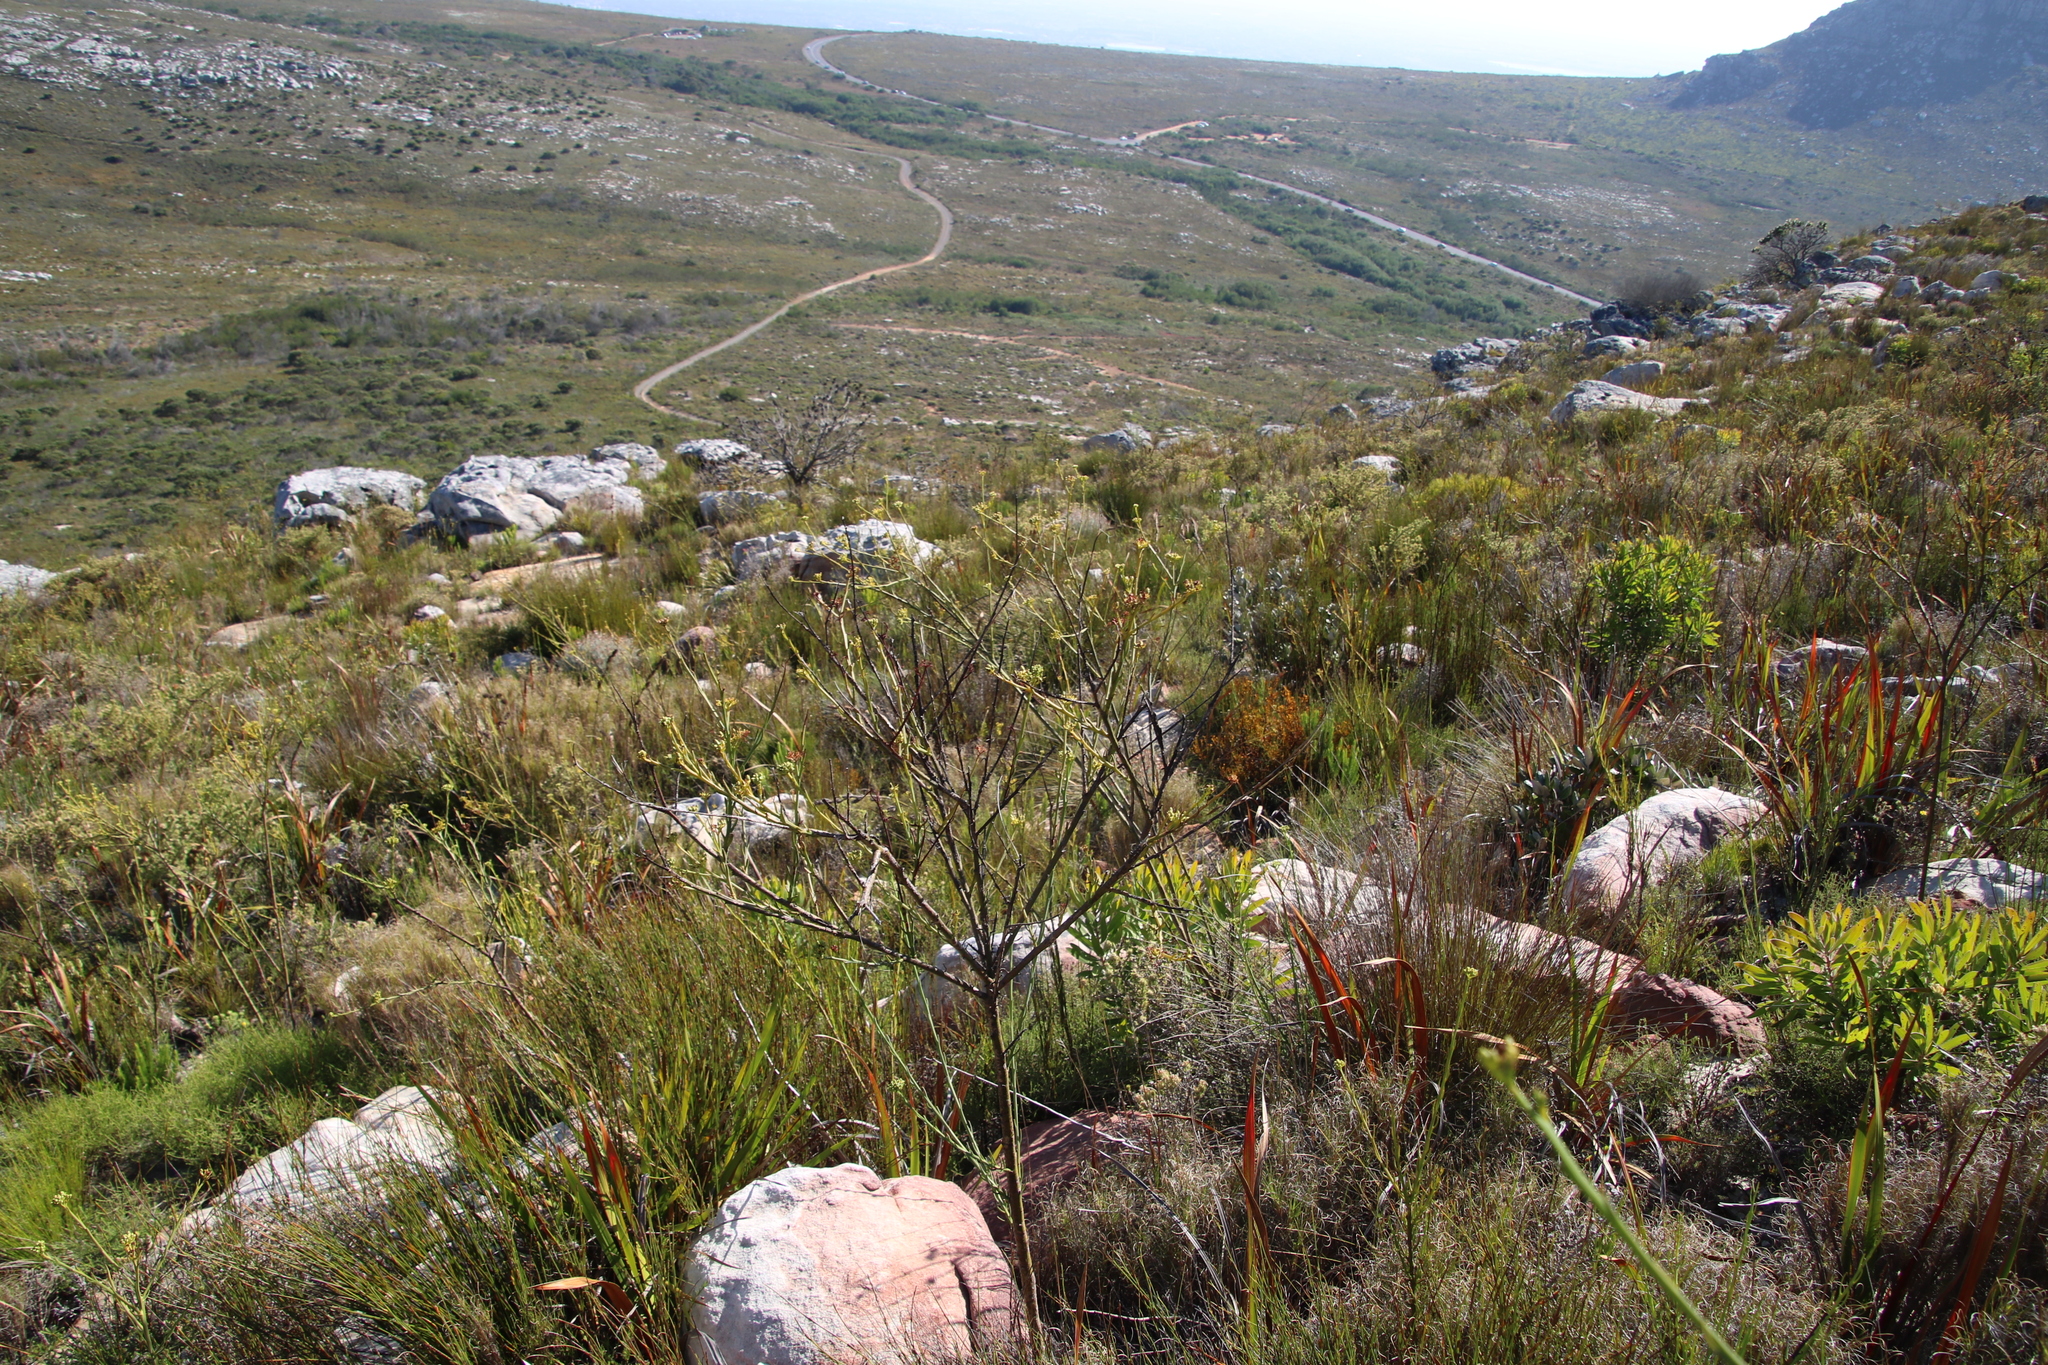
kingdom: Plantae
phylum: Tracheophyta
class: Magnoliopsida
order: Santalales
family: Thesiaceae
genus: Thesium
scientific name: Thesium strictum
